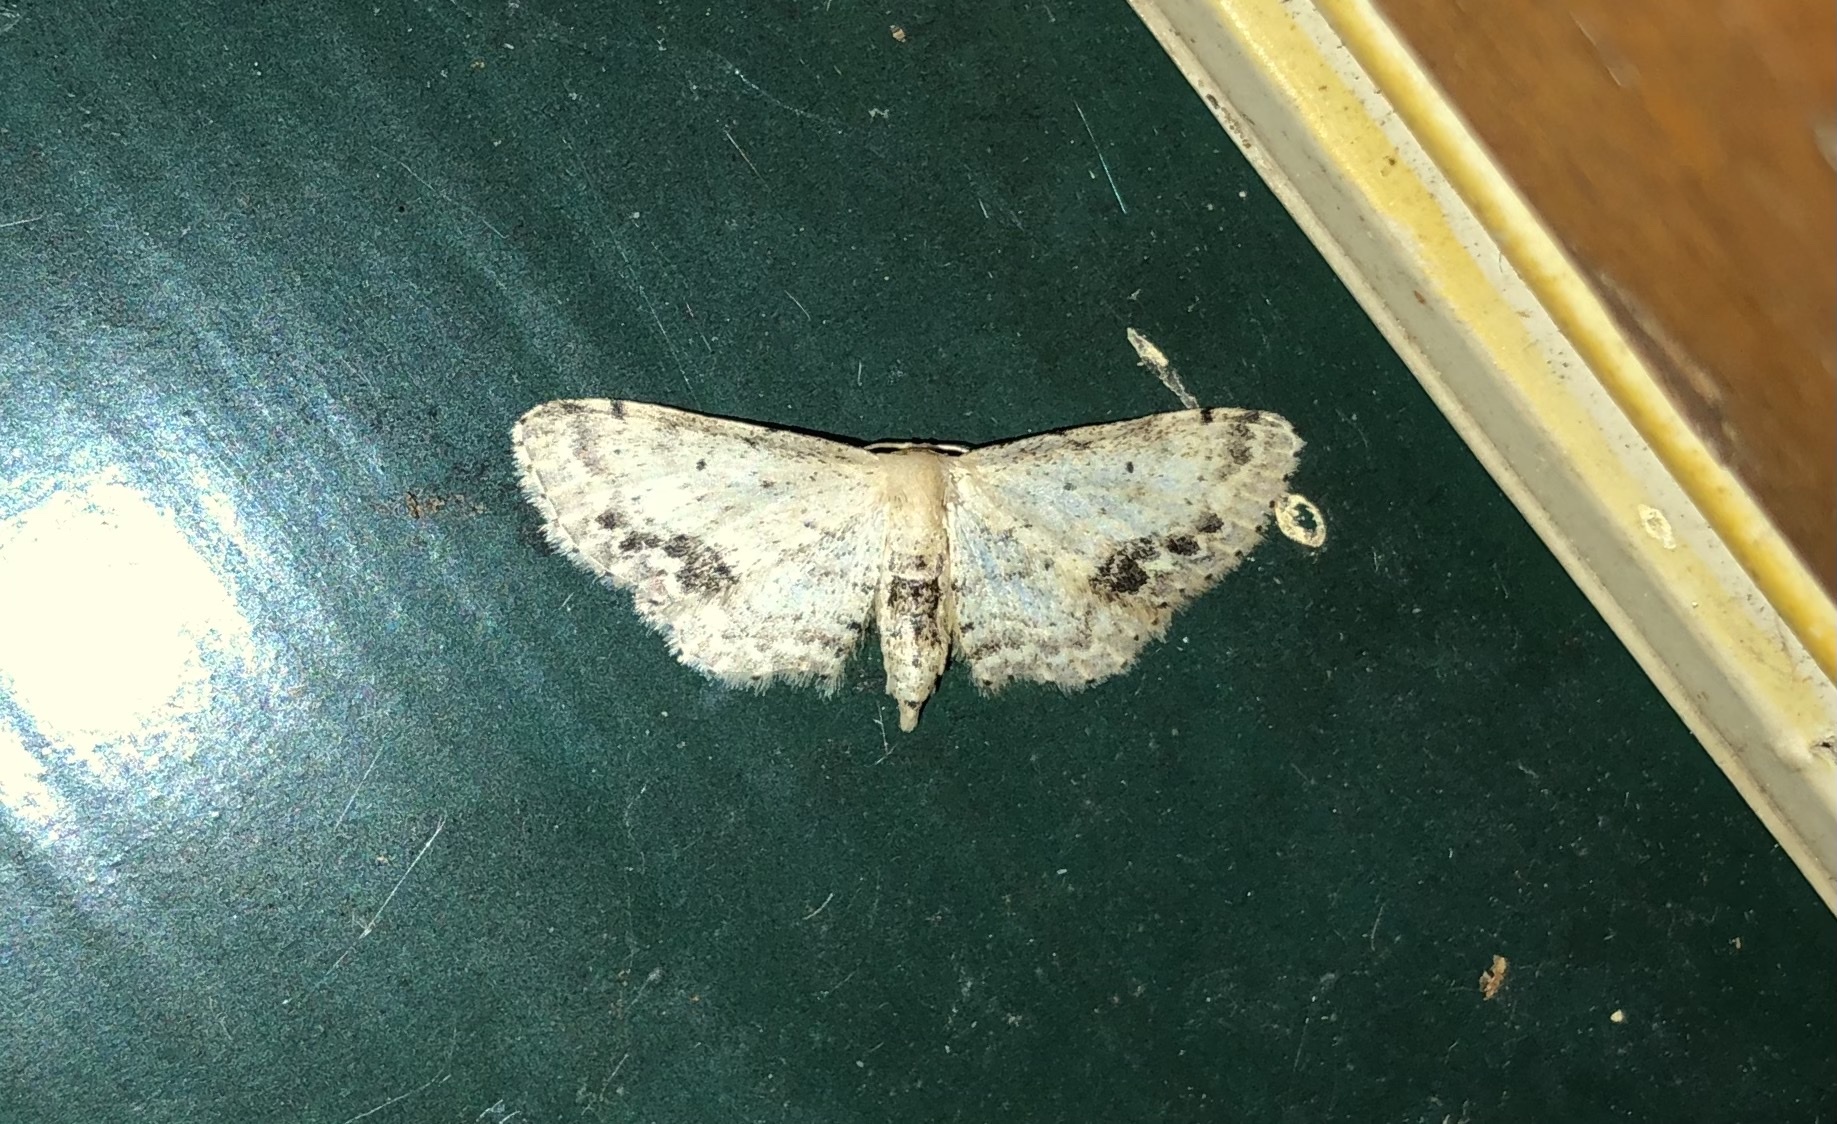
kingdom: Animalia
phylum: Arthropoda
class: Insecta
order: Lepidoptera
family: Geometridae
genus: Idaea
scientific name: Idaea dimidiata
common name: Single-dotted wave
